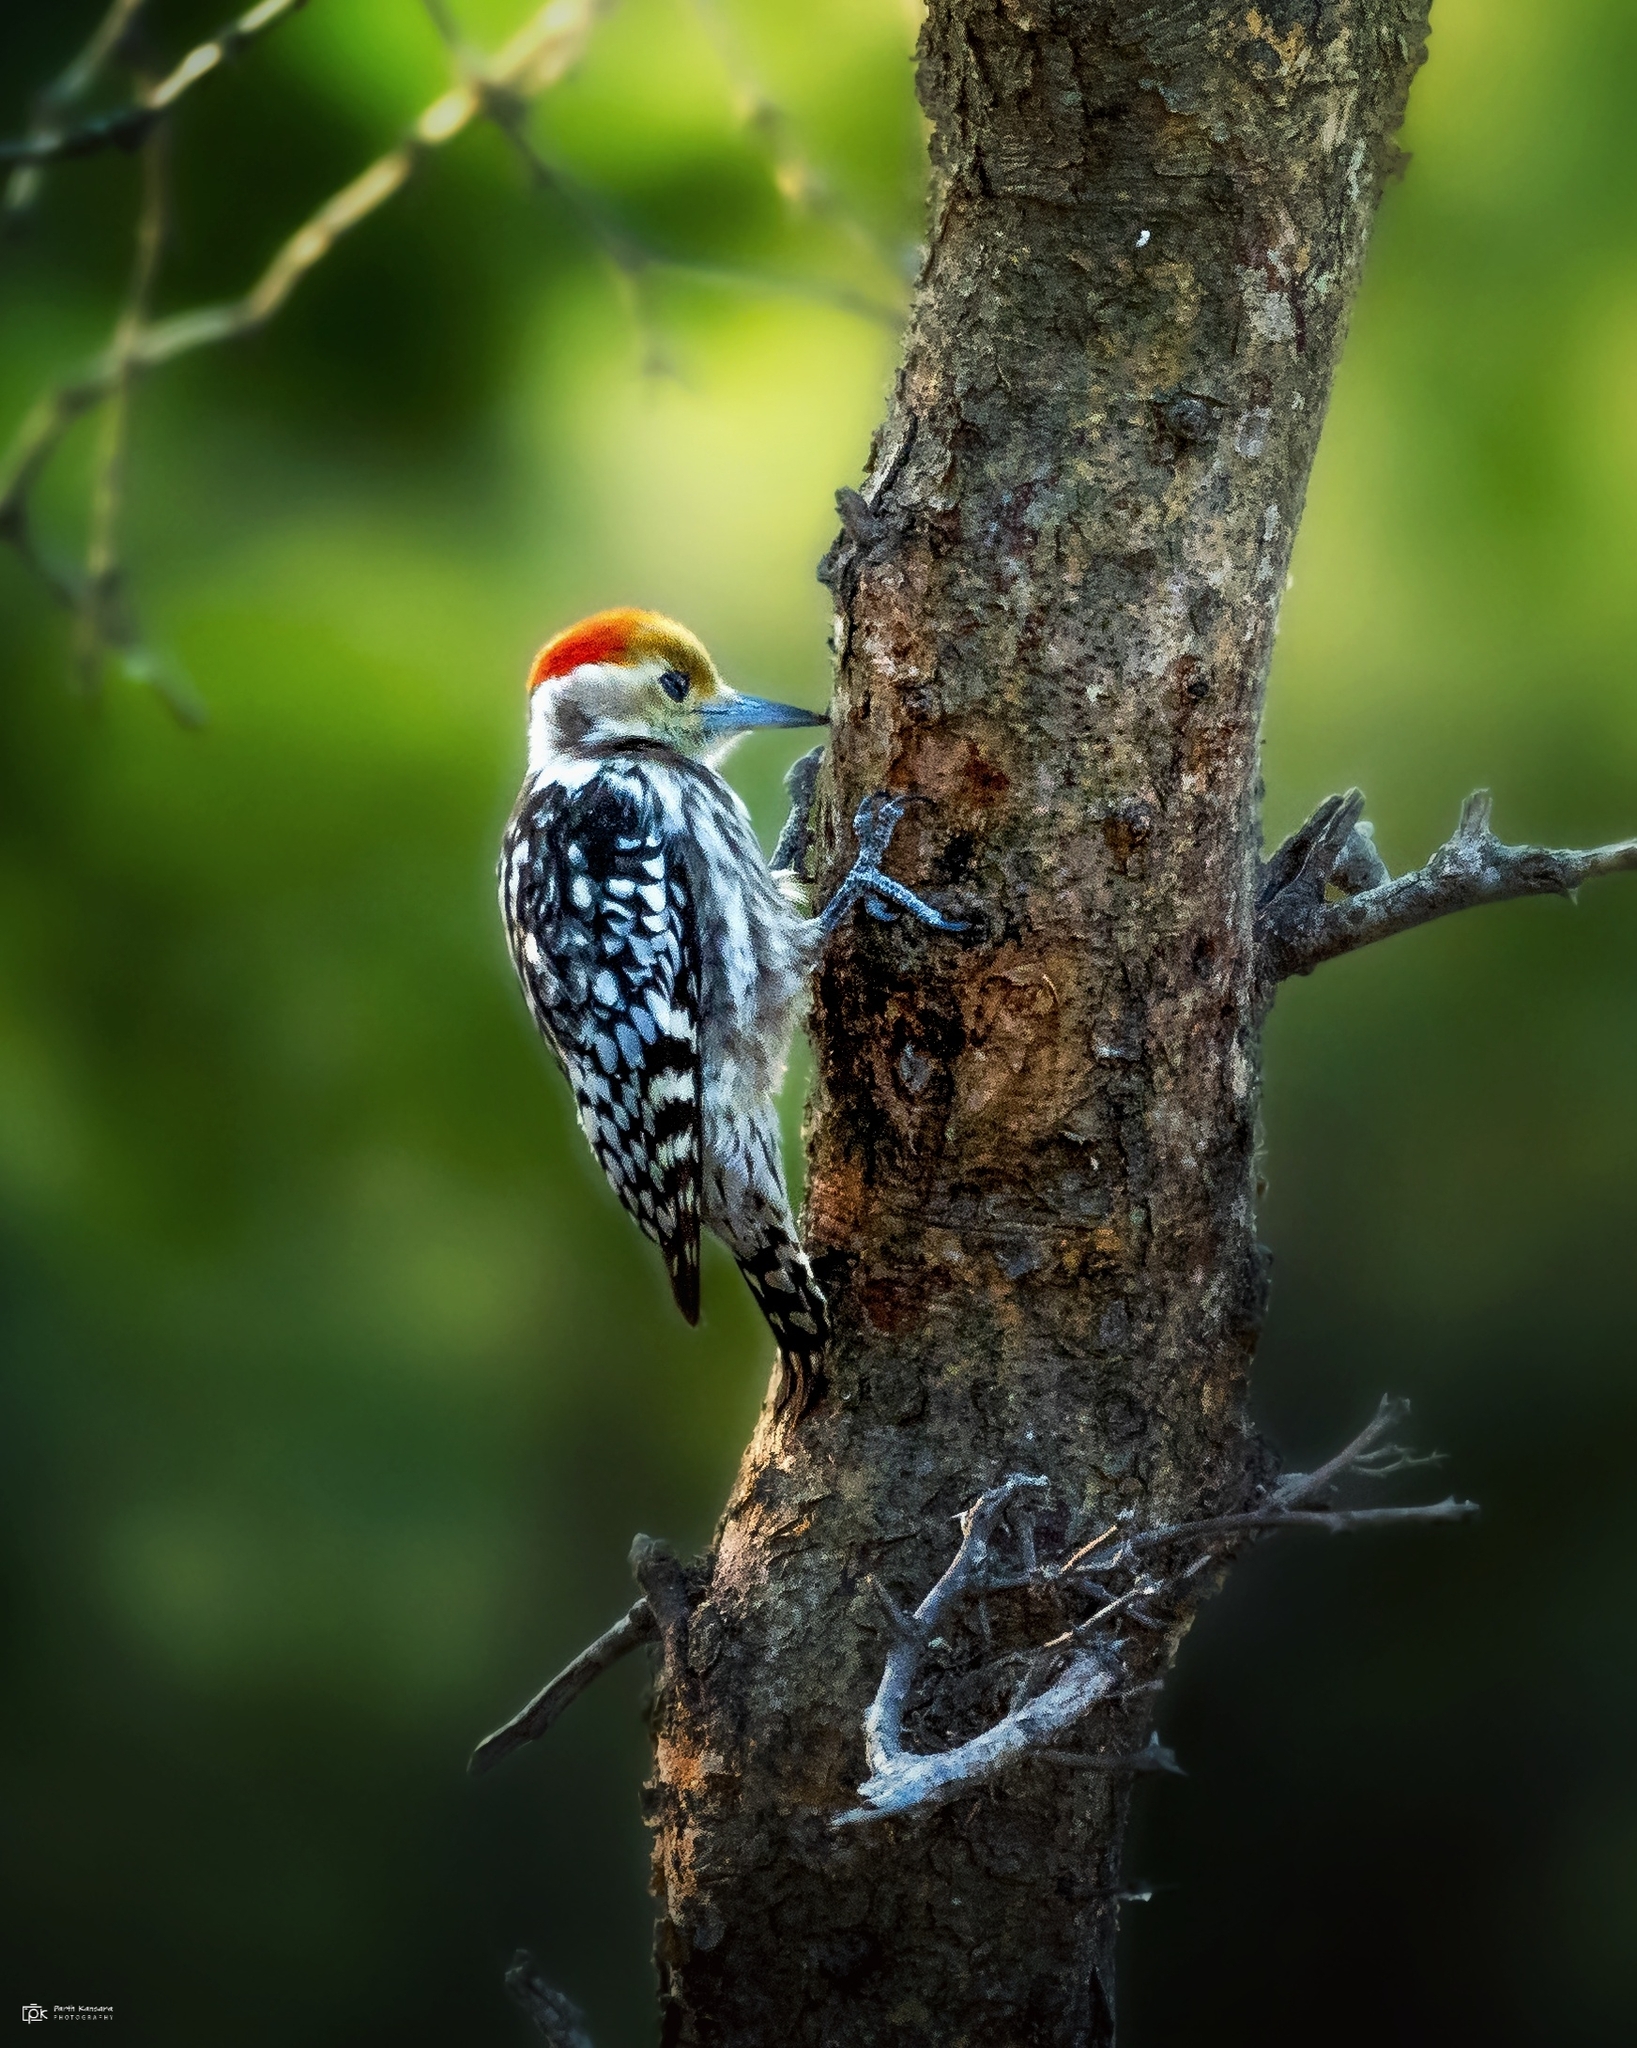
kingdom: Animalia
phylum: Chordata
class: Aves
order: Piciformes
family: Picidae
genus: Leiopicus
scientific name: Leiopicus mahrattensis
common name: Yellow-crowned woodpecker
